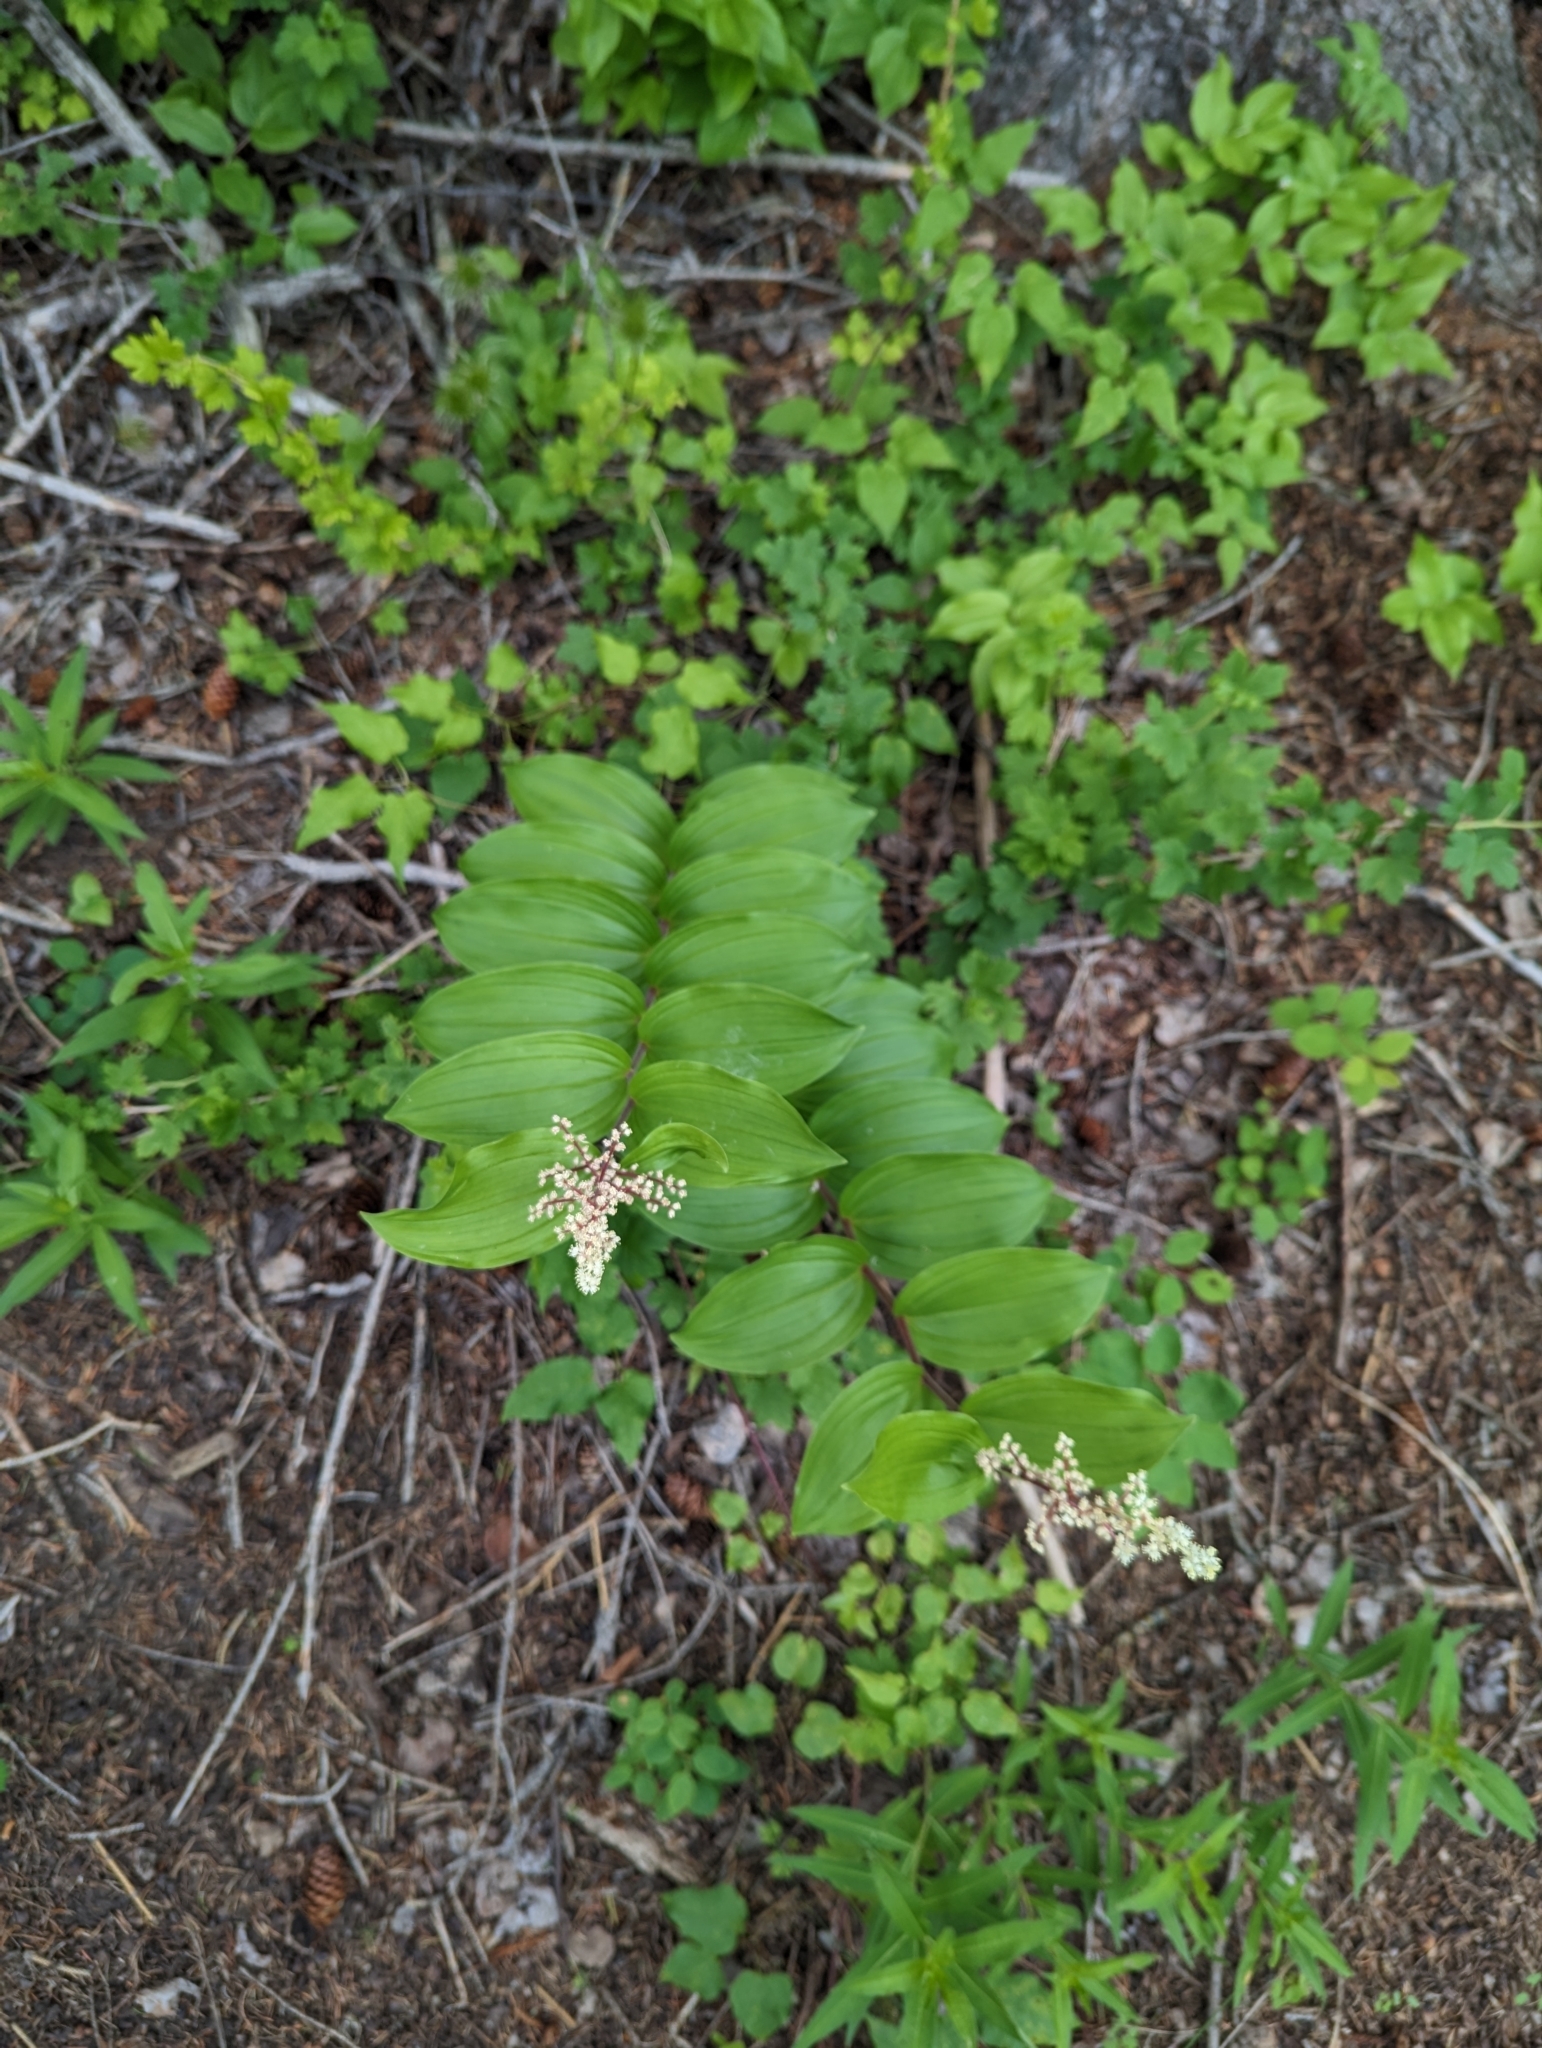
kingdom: Plantae
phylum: Tracheophyta
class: Liliopsida
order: Asparagales
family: Asparagaceae
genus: Maianthemum
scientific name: Maianthemum racemosum
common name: False spikenard
